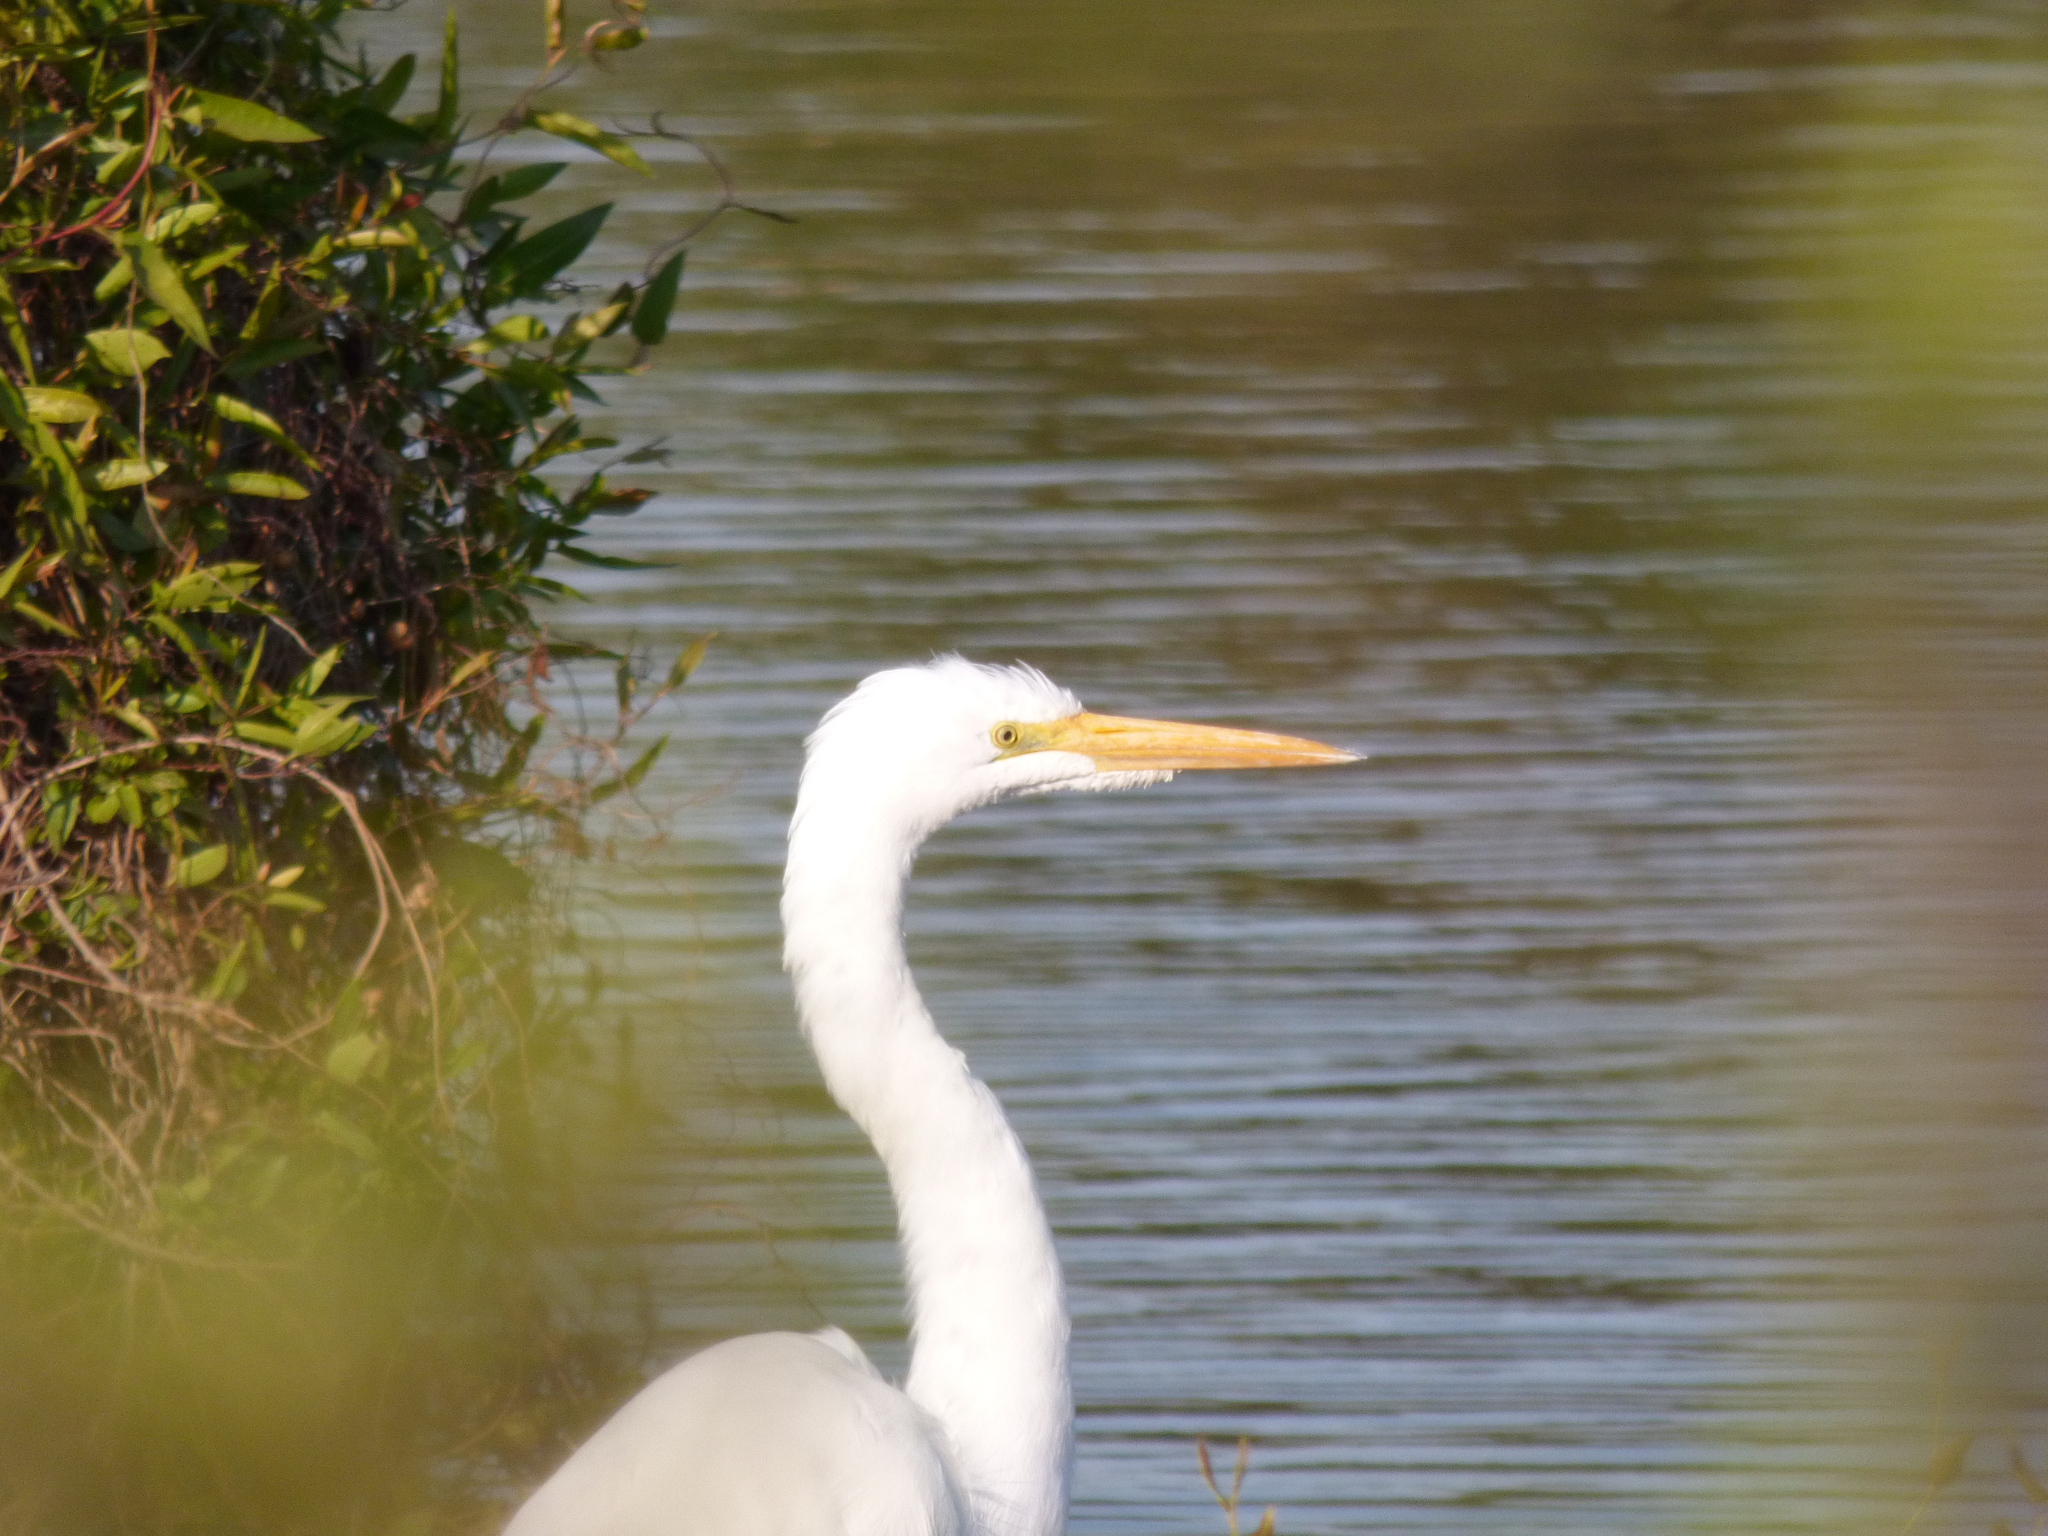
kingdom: Animalia
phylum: Chordata
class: Aves
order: Pelecaniformes
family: Ardeidae
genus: Ardea
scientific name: Ardea alba
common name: Great egret
